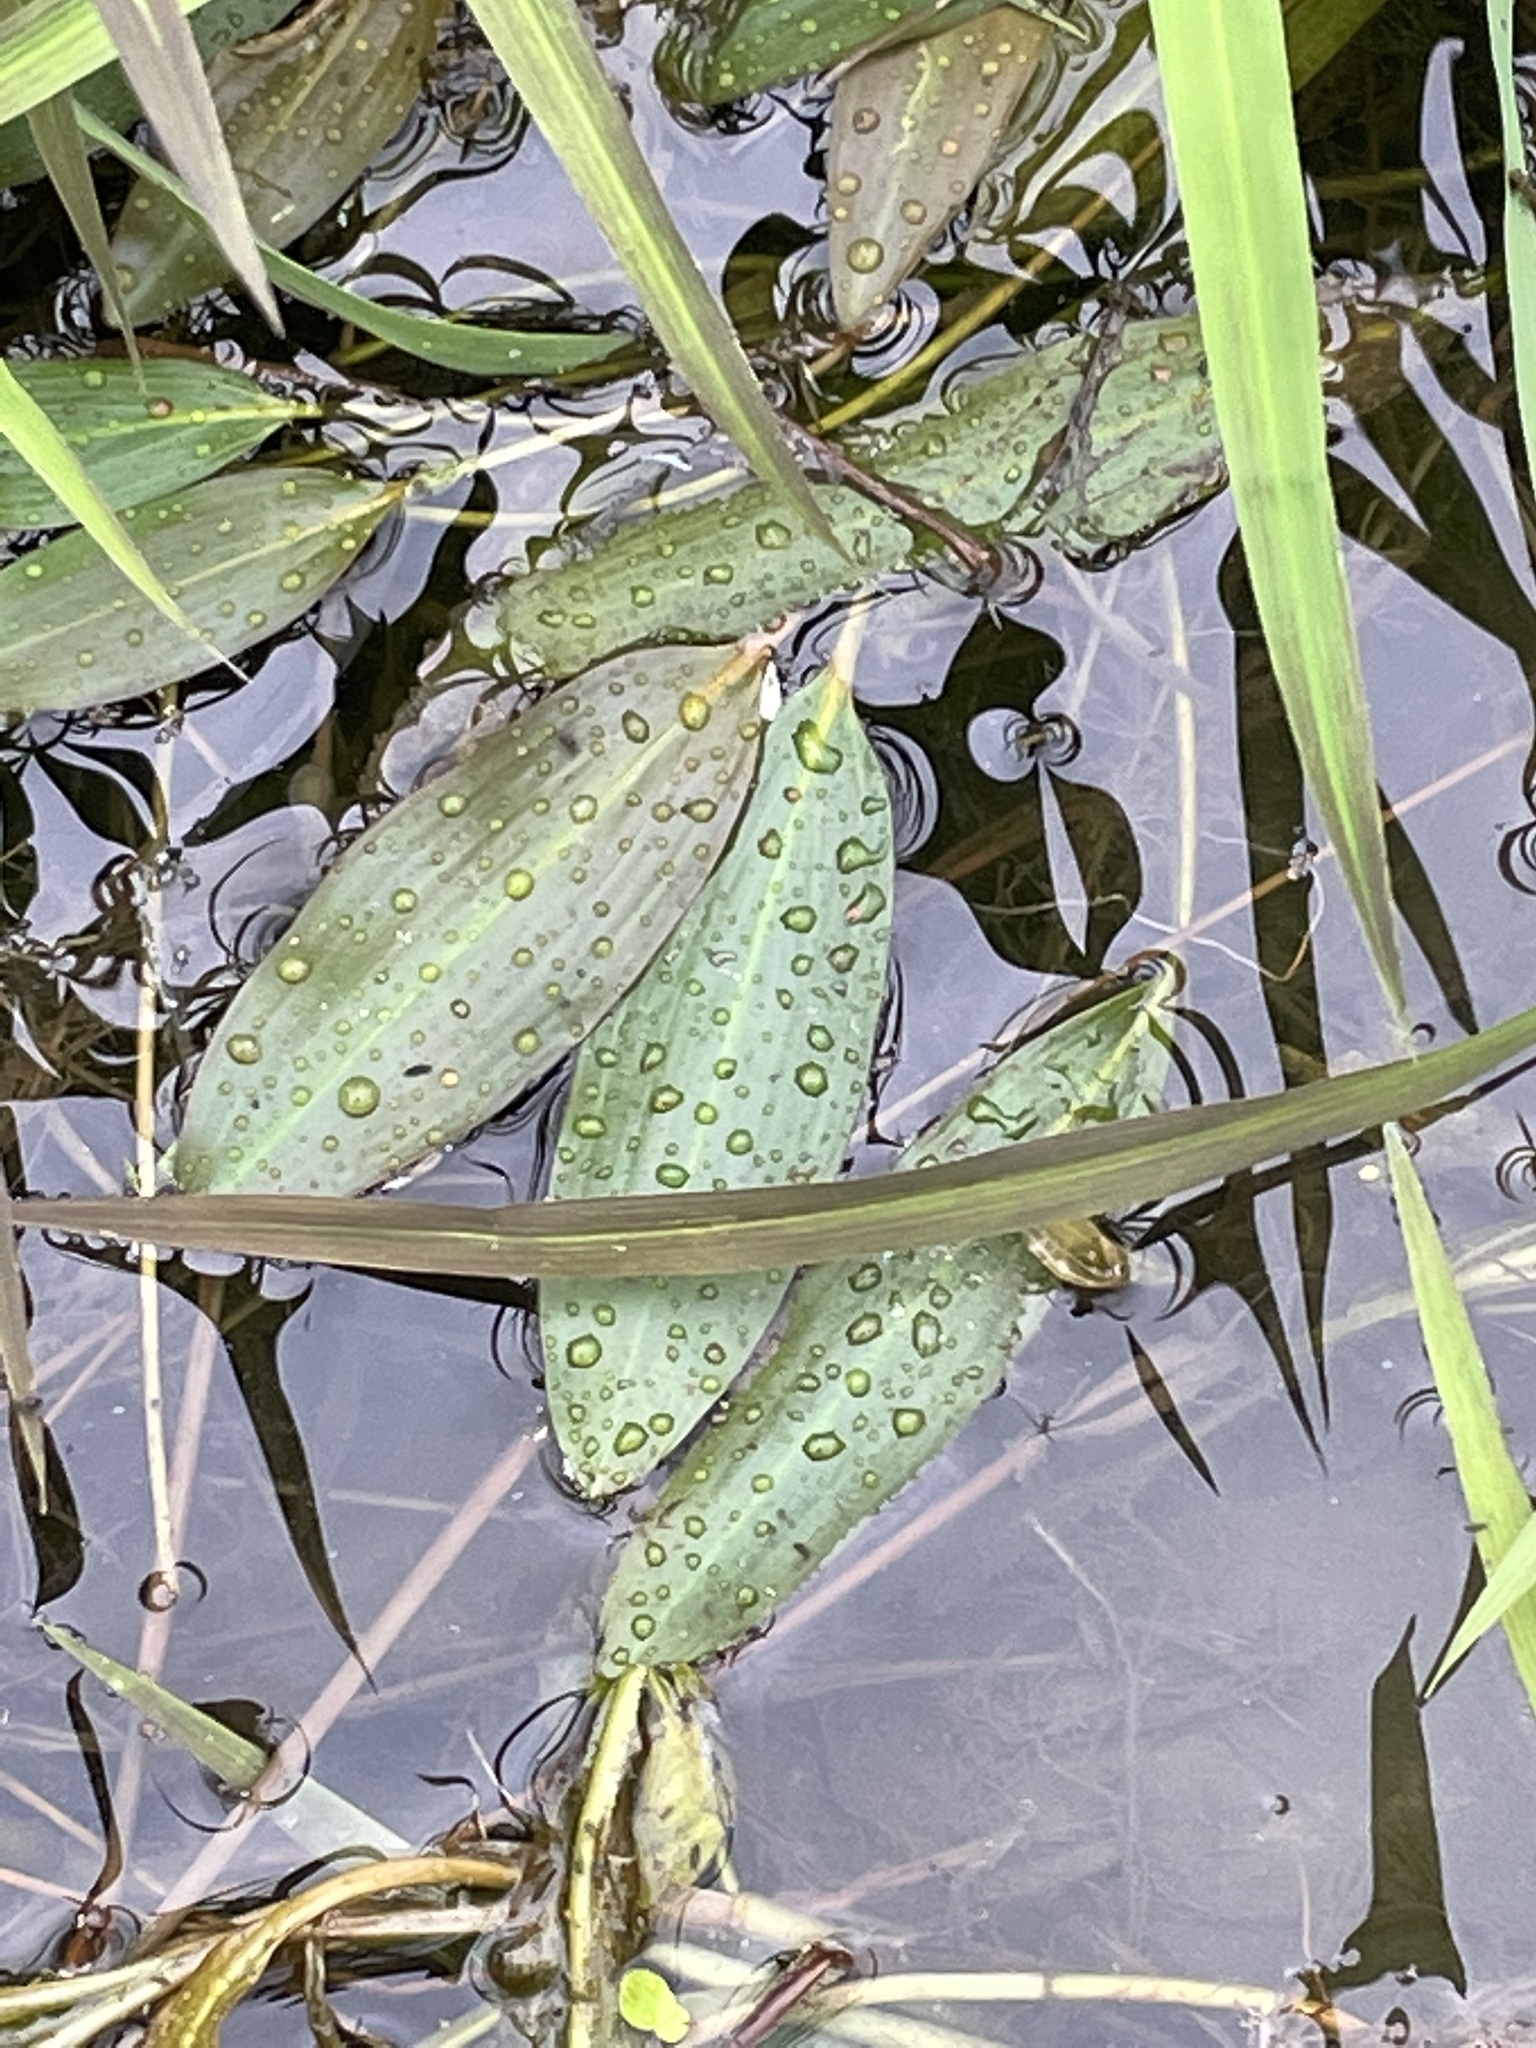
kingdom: Plantae
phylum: Tracheophyta
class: Liliopsida
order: Alismatales
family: Potamogetonaceae
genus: Potamogeton
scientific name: Potamogeton nodosus
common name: Loddon pondweed
